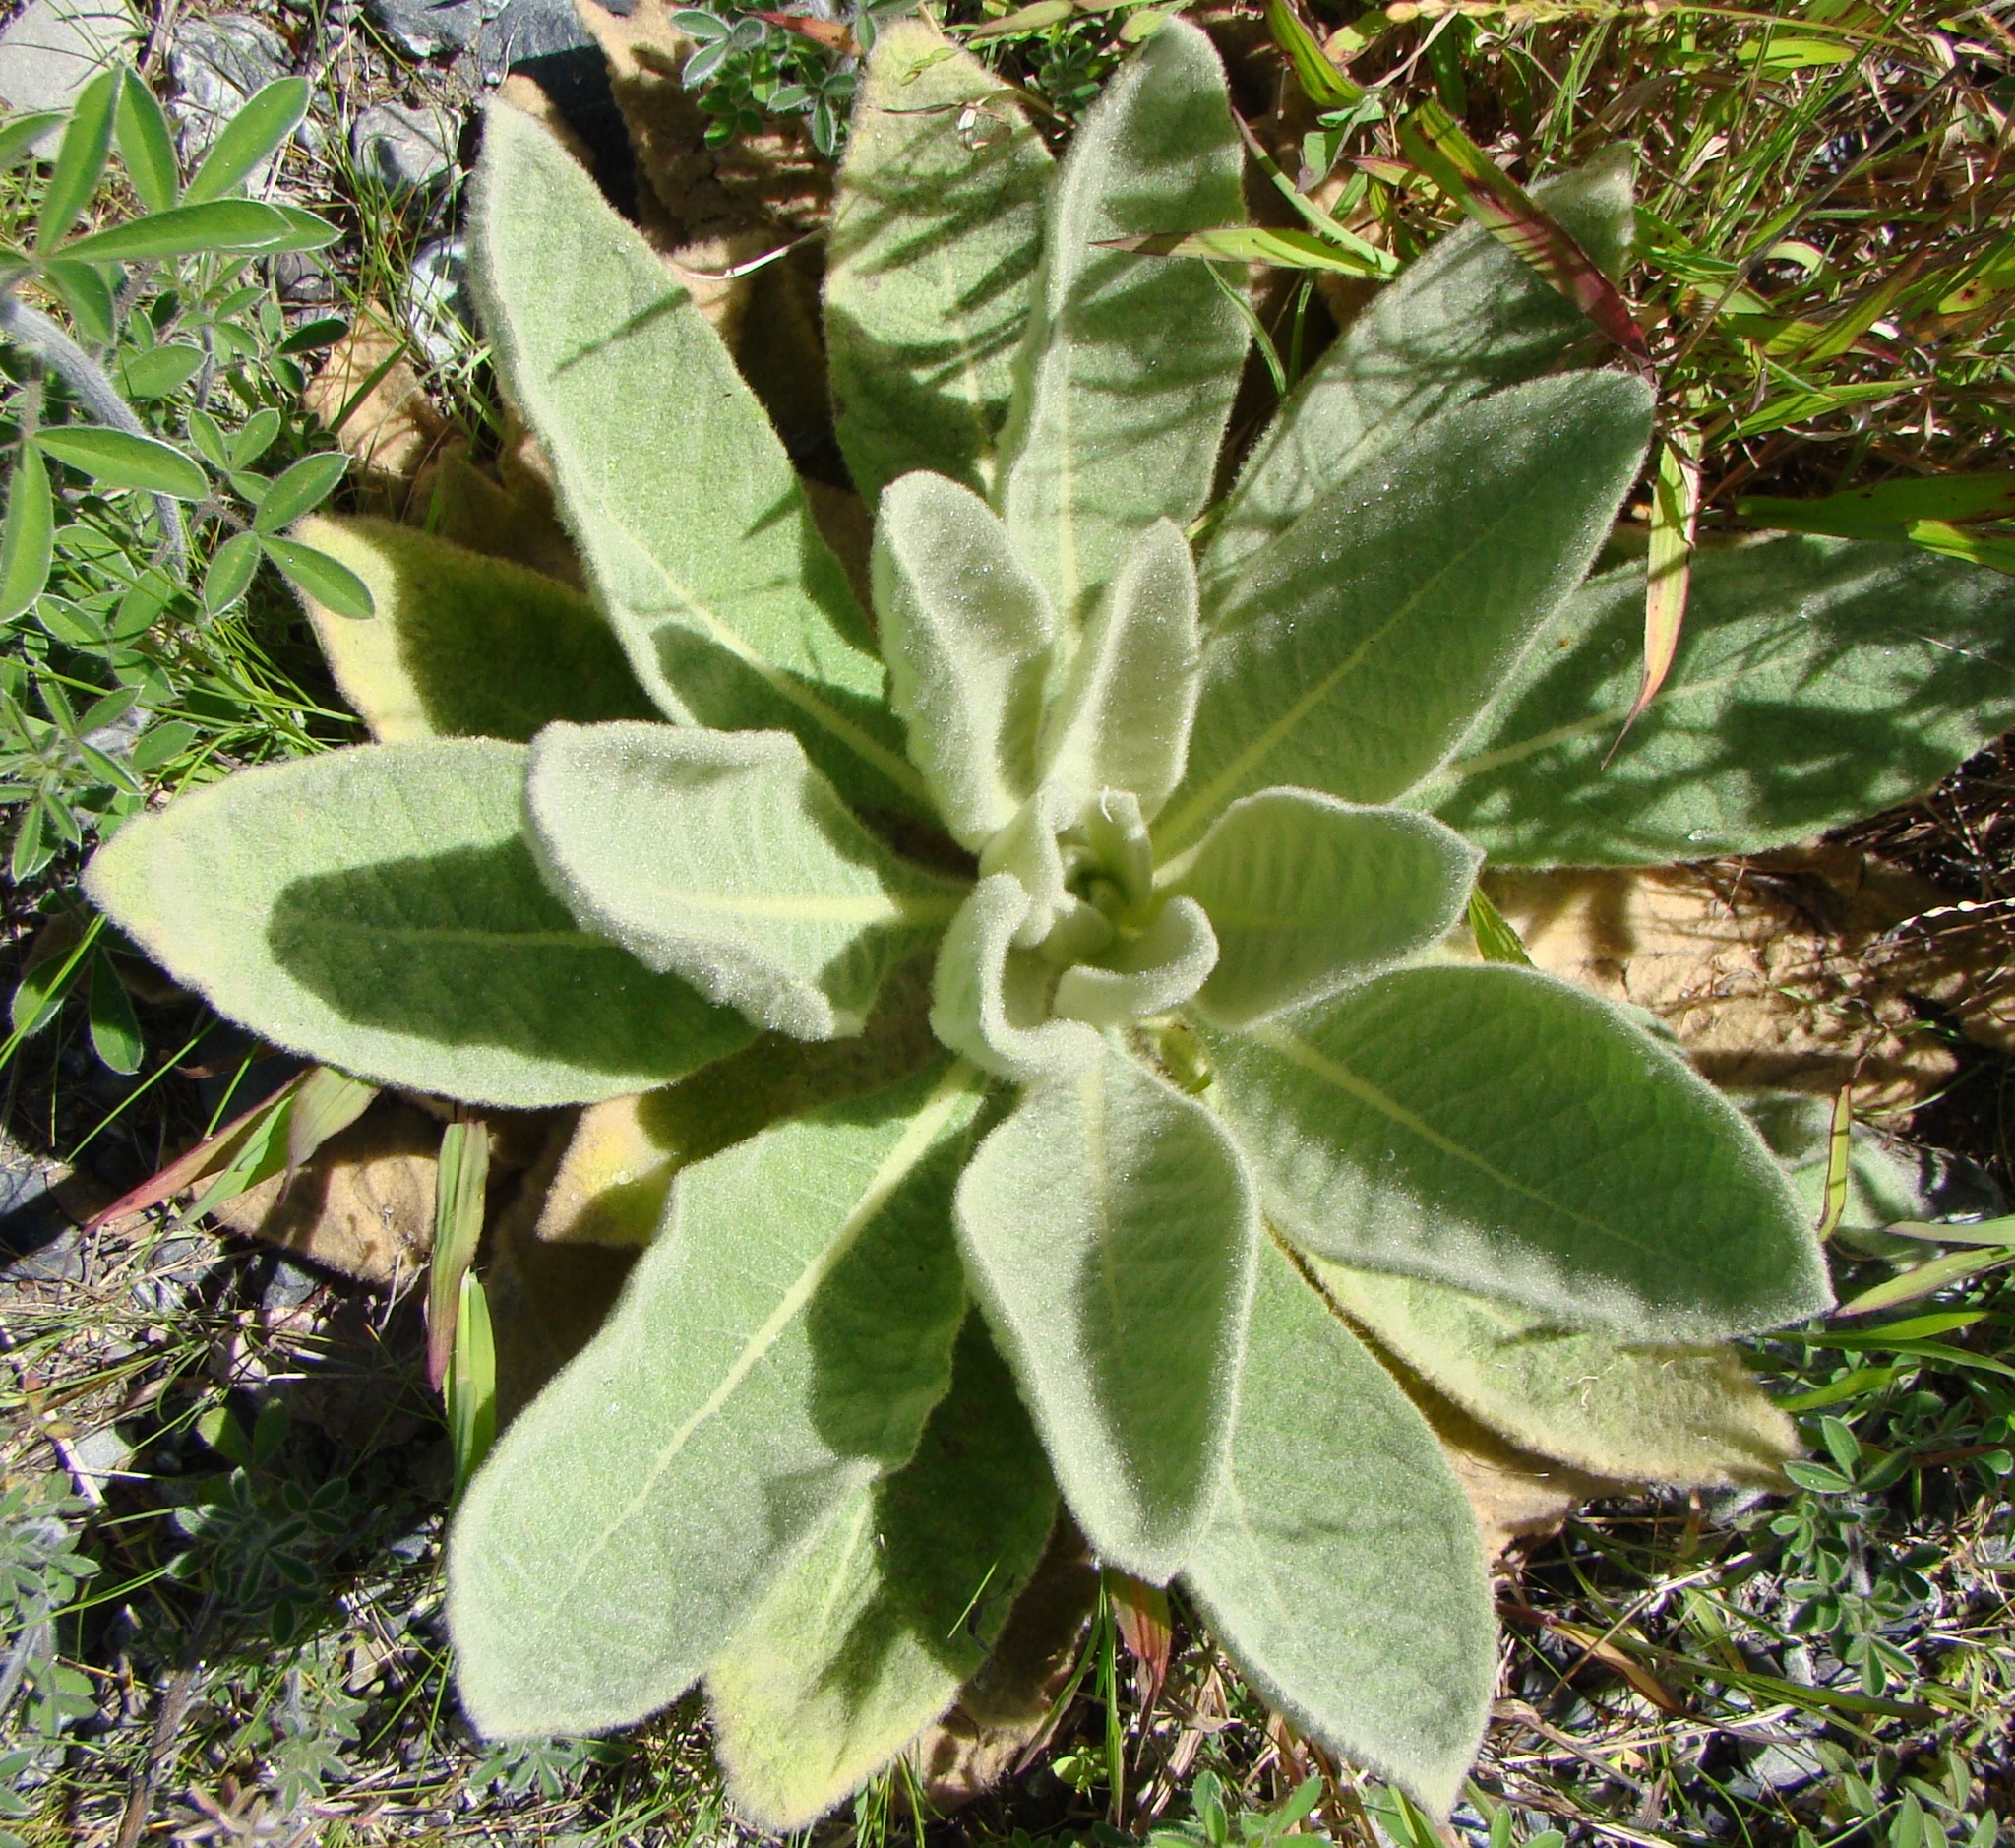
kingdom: Plantae
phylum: Tracheophyta
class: Magnoliopsida
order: Lamiales
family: Scrophulariaceae
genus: Verbascum
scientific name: Verbascum thapsus
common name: Common mullein
